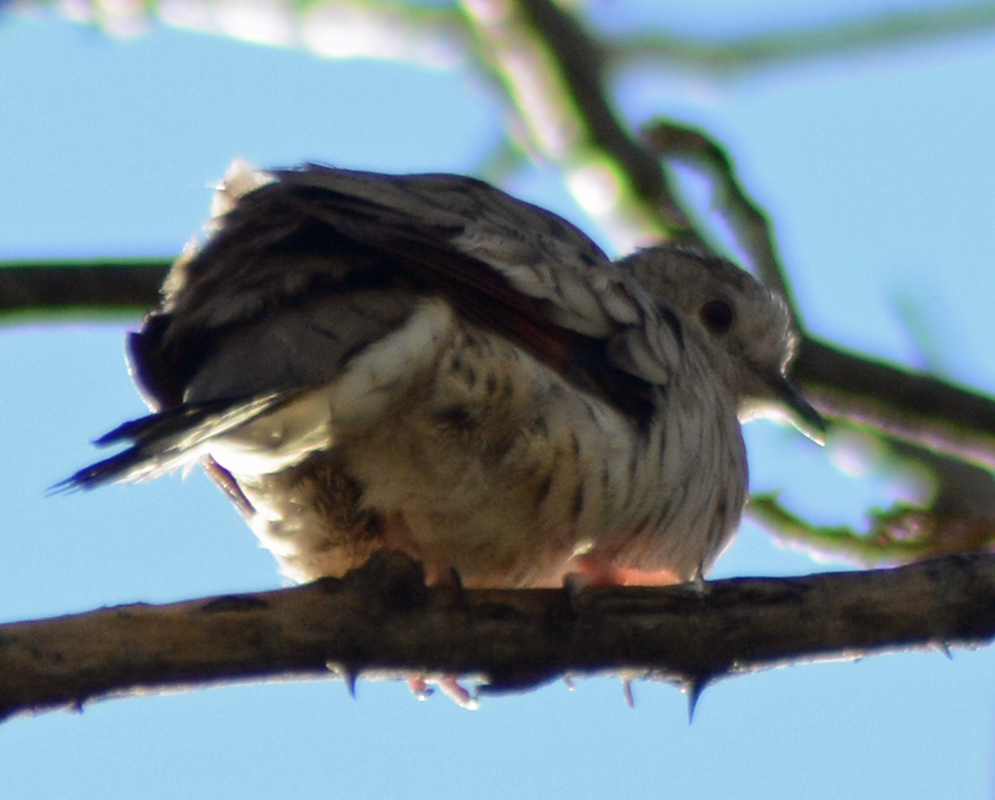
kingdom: Animalia
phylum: Chordata
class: Aves
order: Columbiformes
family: Columbidae
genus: Columbina
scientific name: Columbina inca
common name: Inca dove
